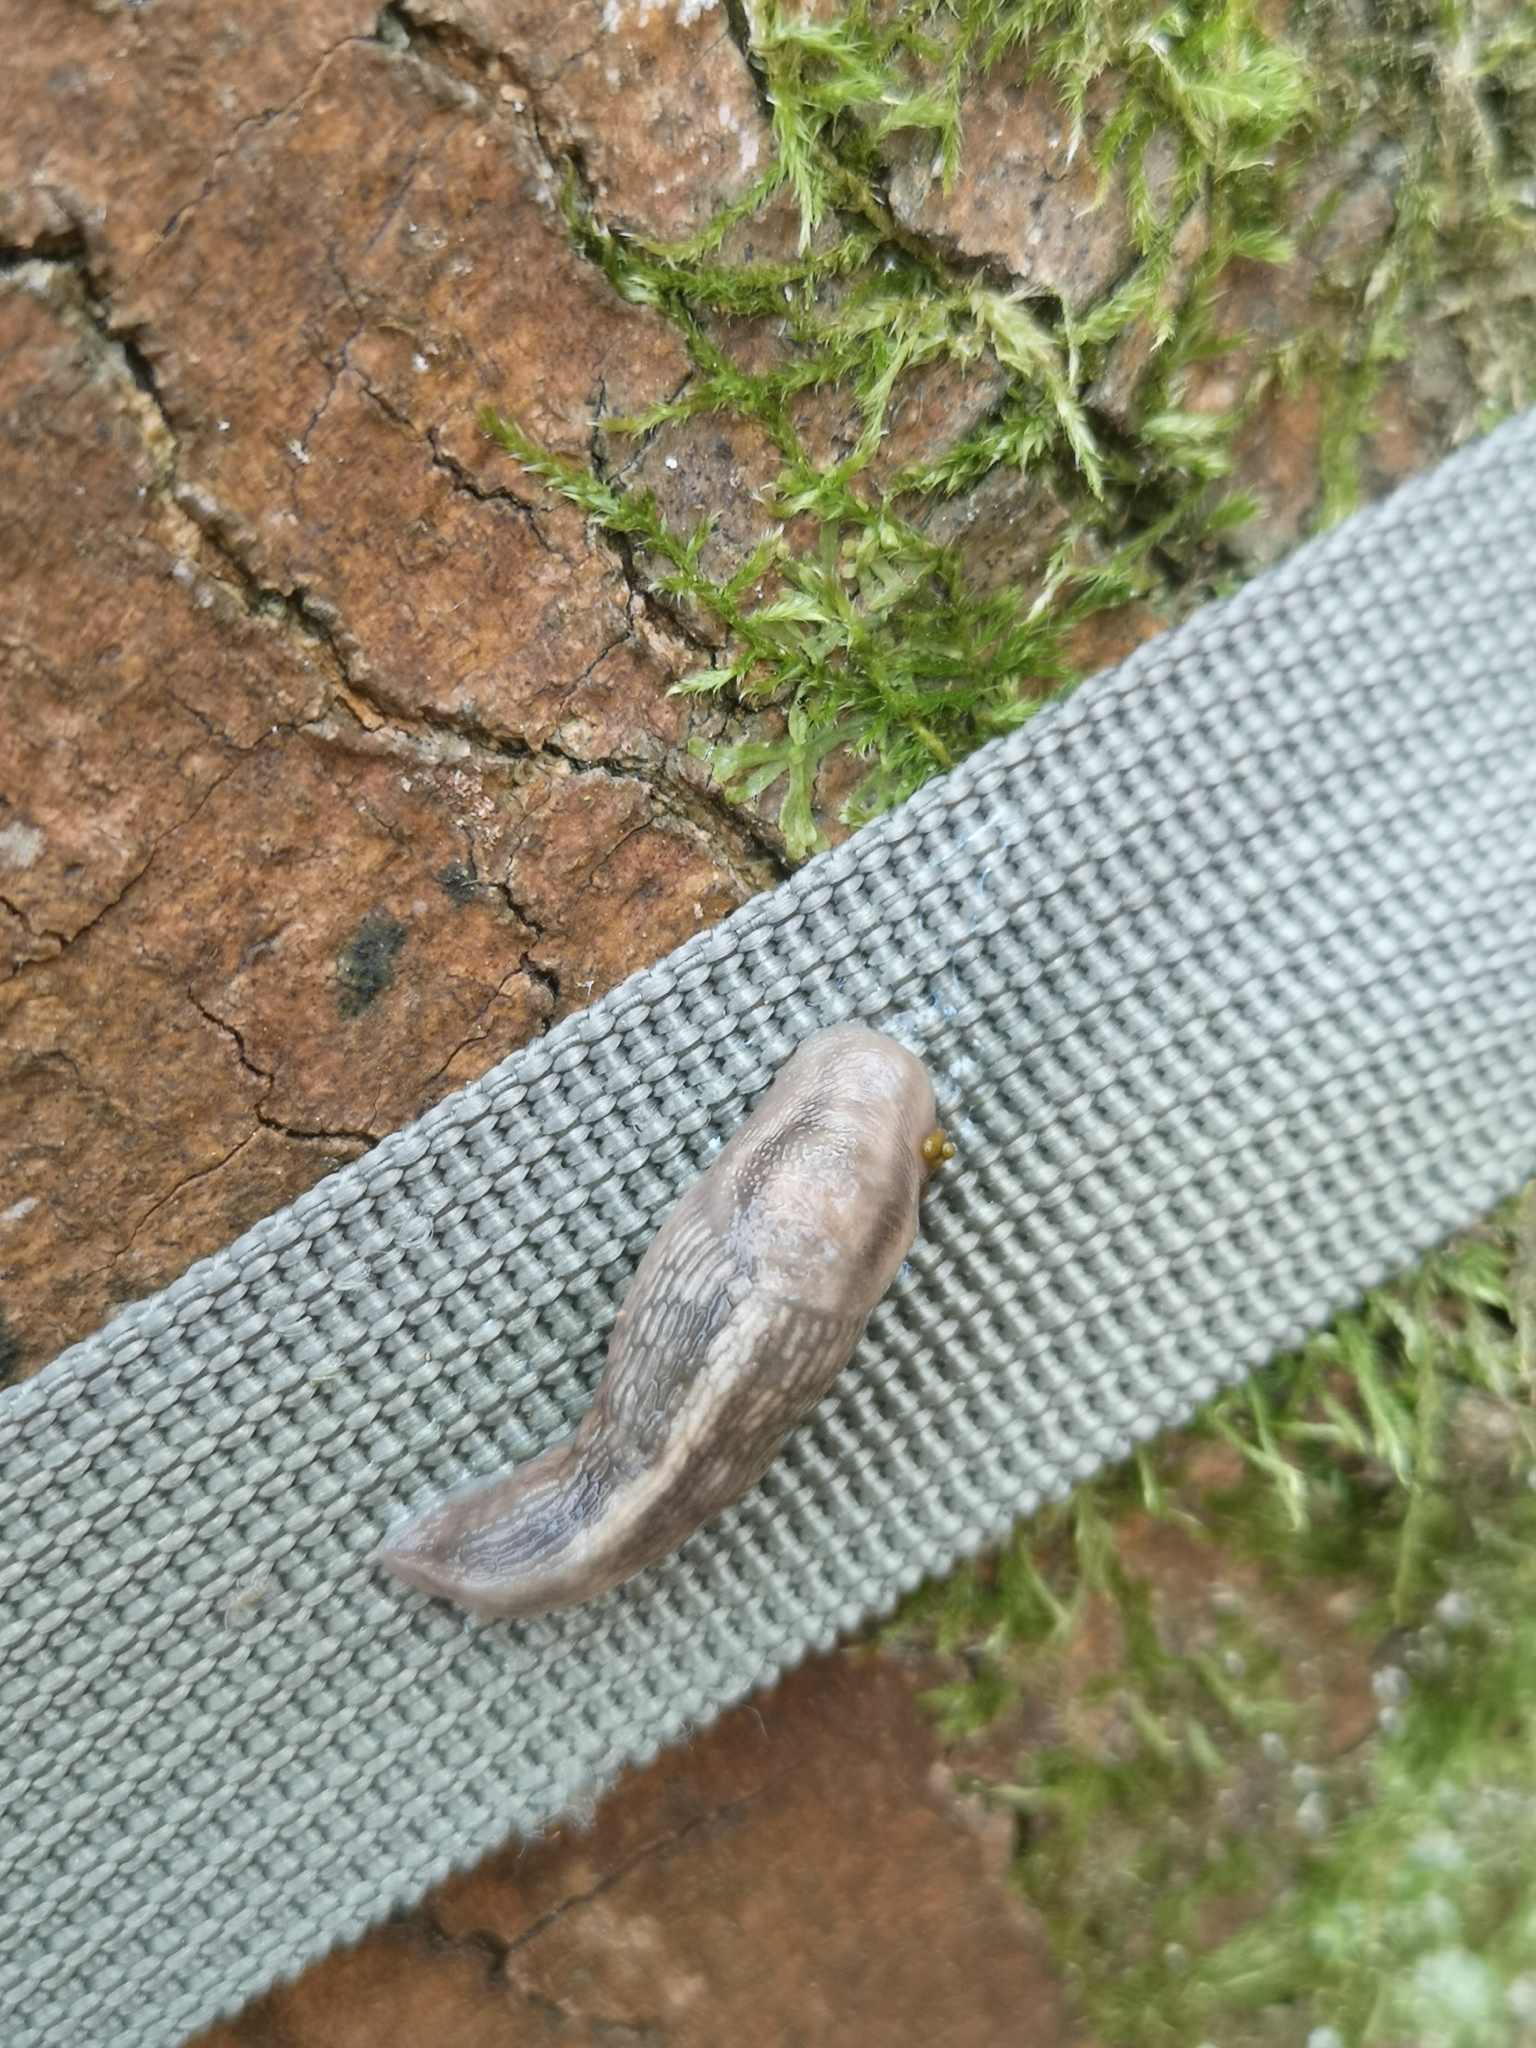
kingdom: Animalia
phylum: Mollusca
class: Gastropoda
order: Stylommatophora
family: Limacidae
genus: Lehmannia
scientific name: Lehmannia marginata
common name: Tree slug
